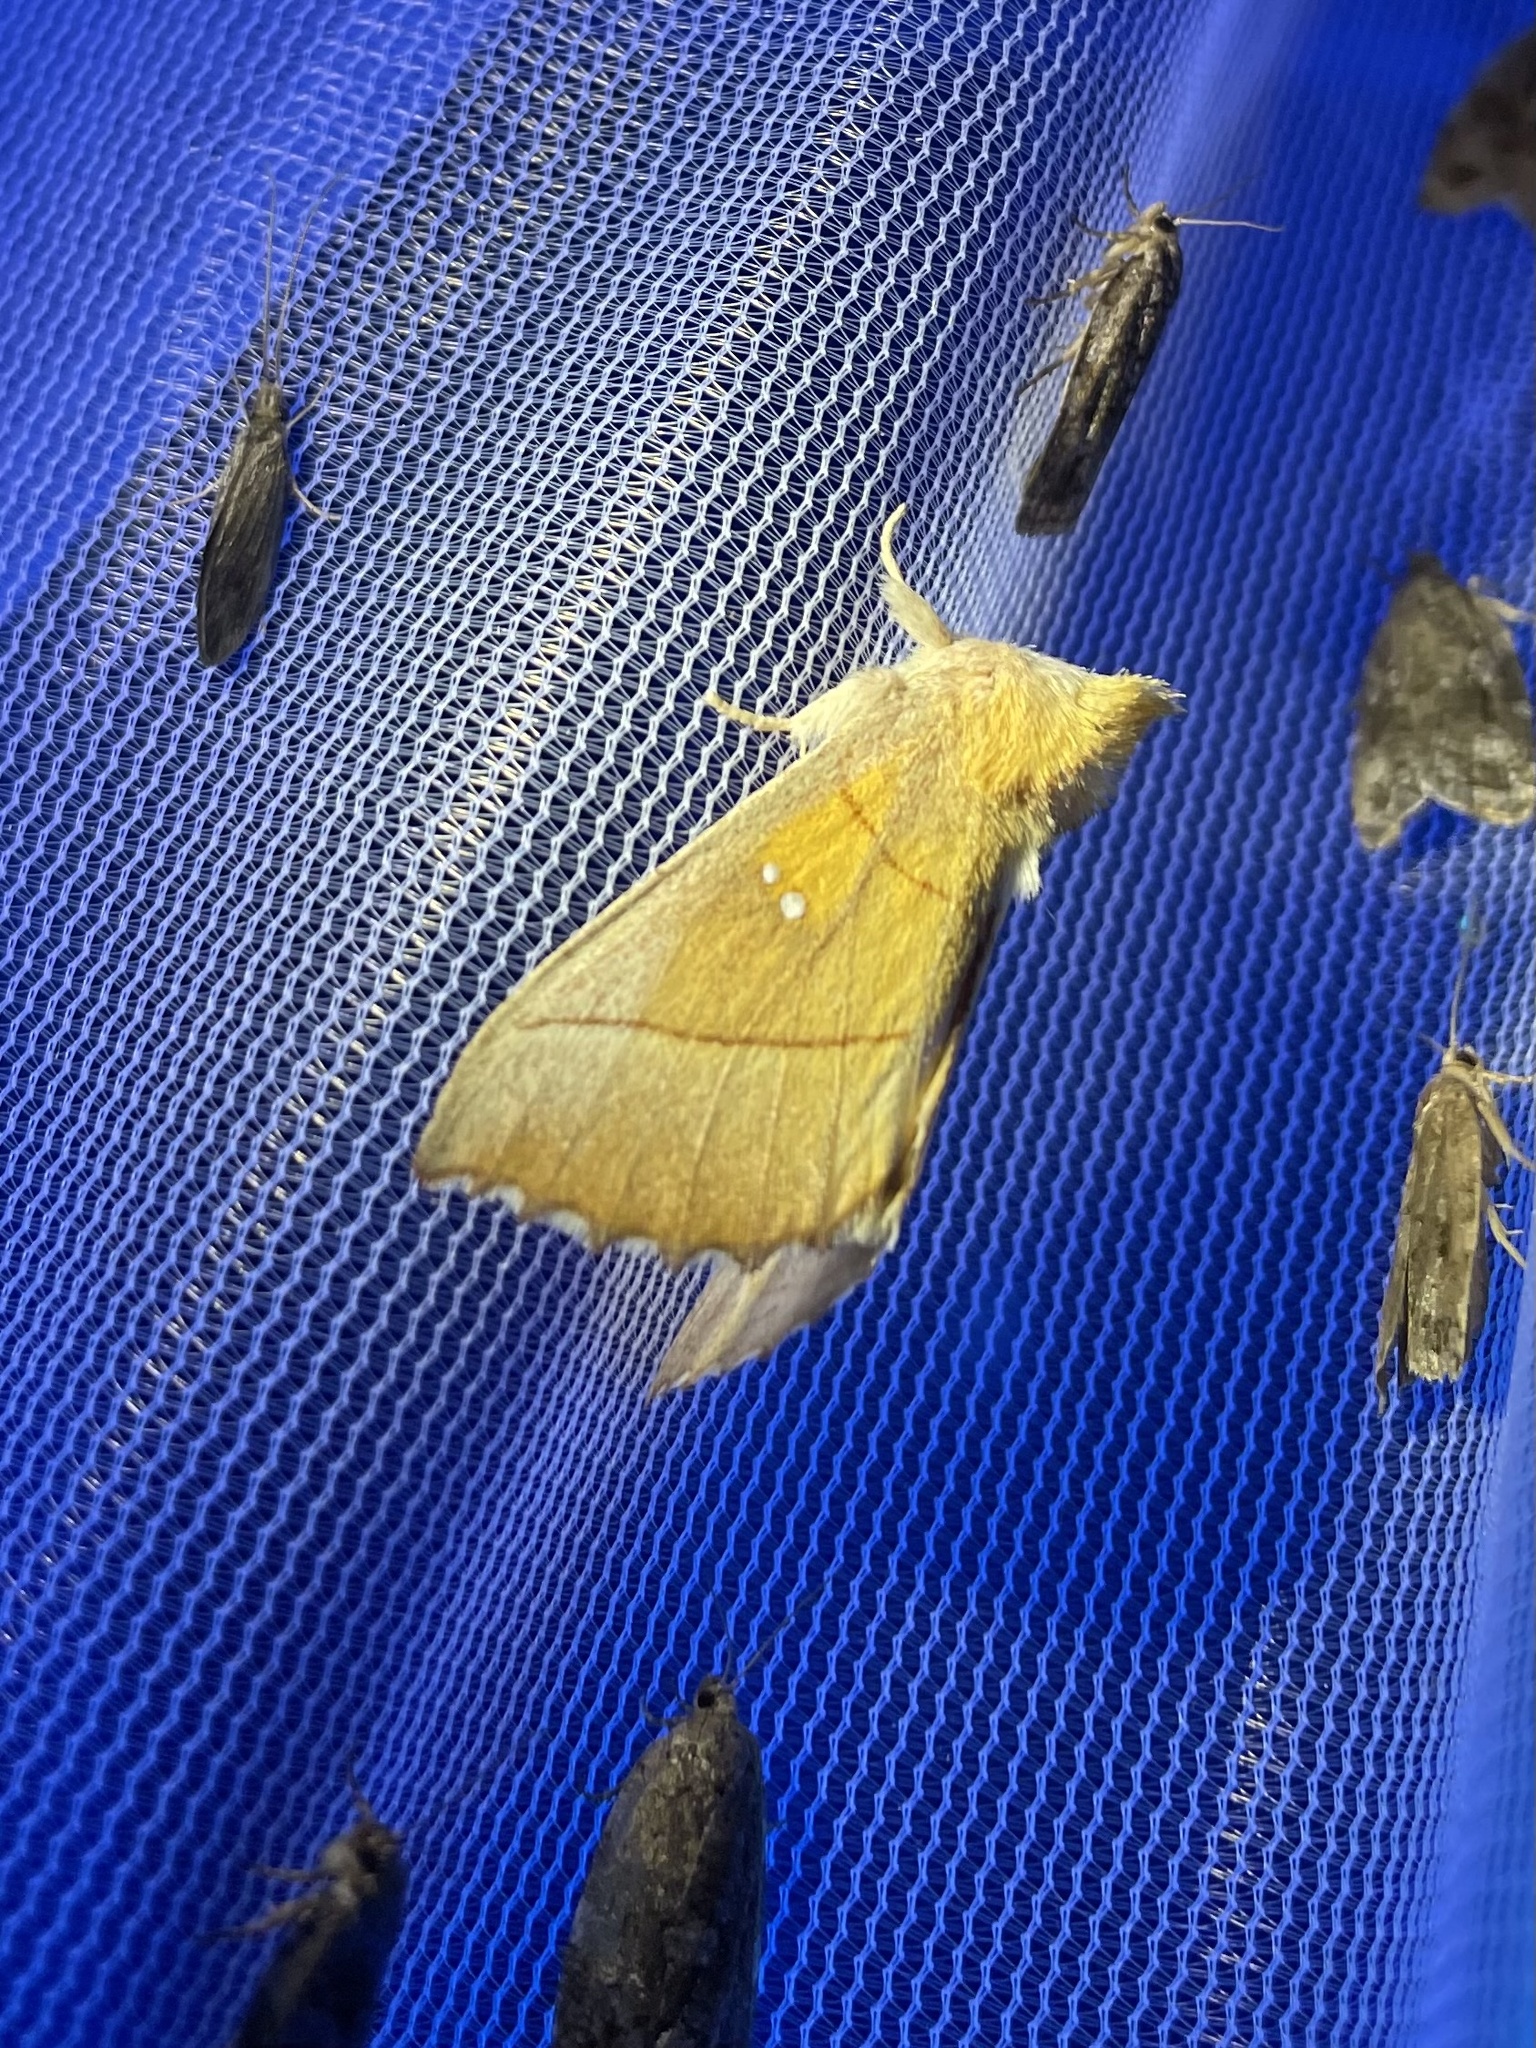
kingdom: Animalia
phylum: Arthropoda
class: Insecta
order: Lepidoptera
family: Notodontidae
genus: Nadata
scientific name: Nadata gibbosa
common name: White-dotted prominent
